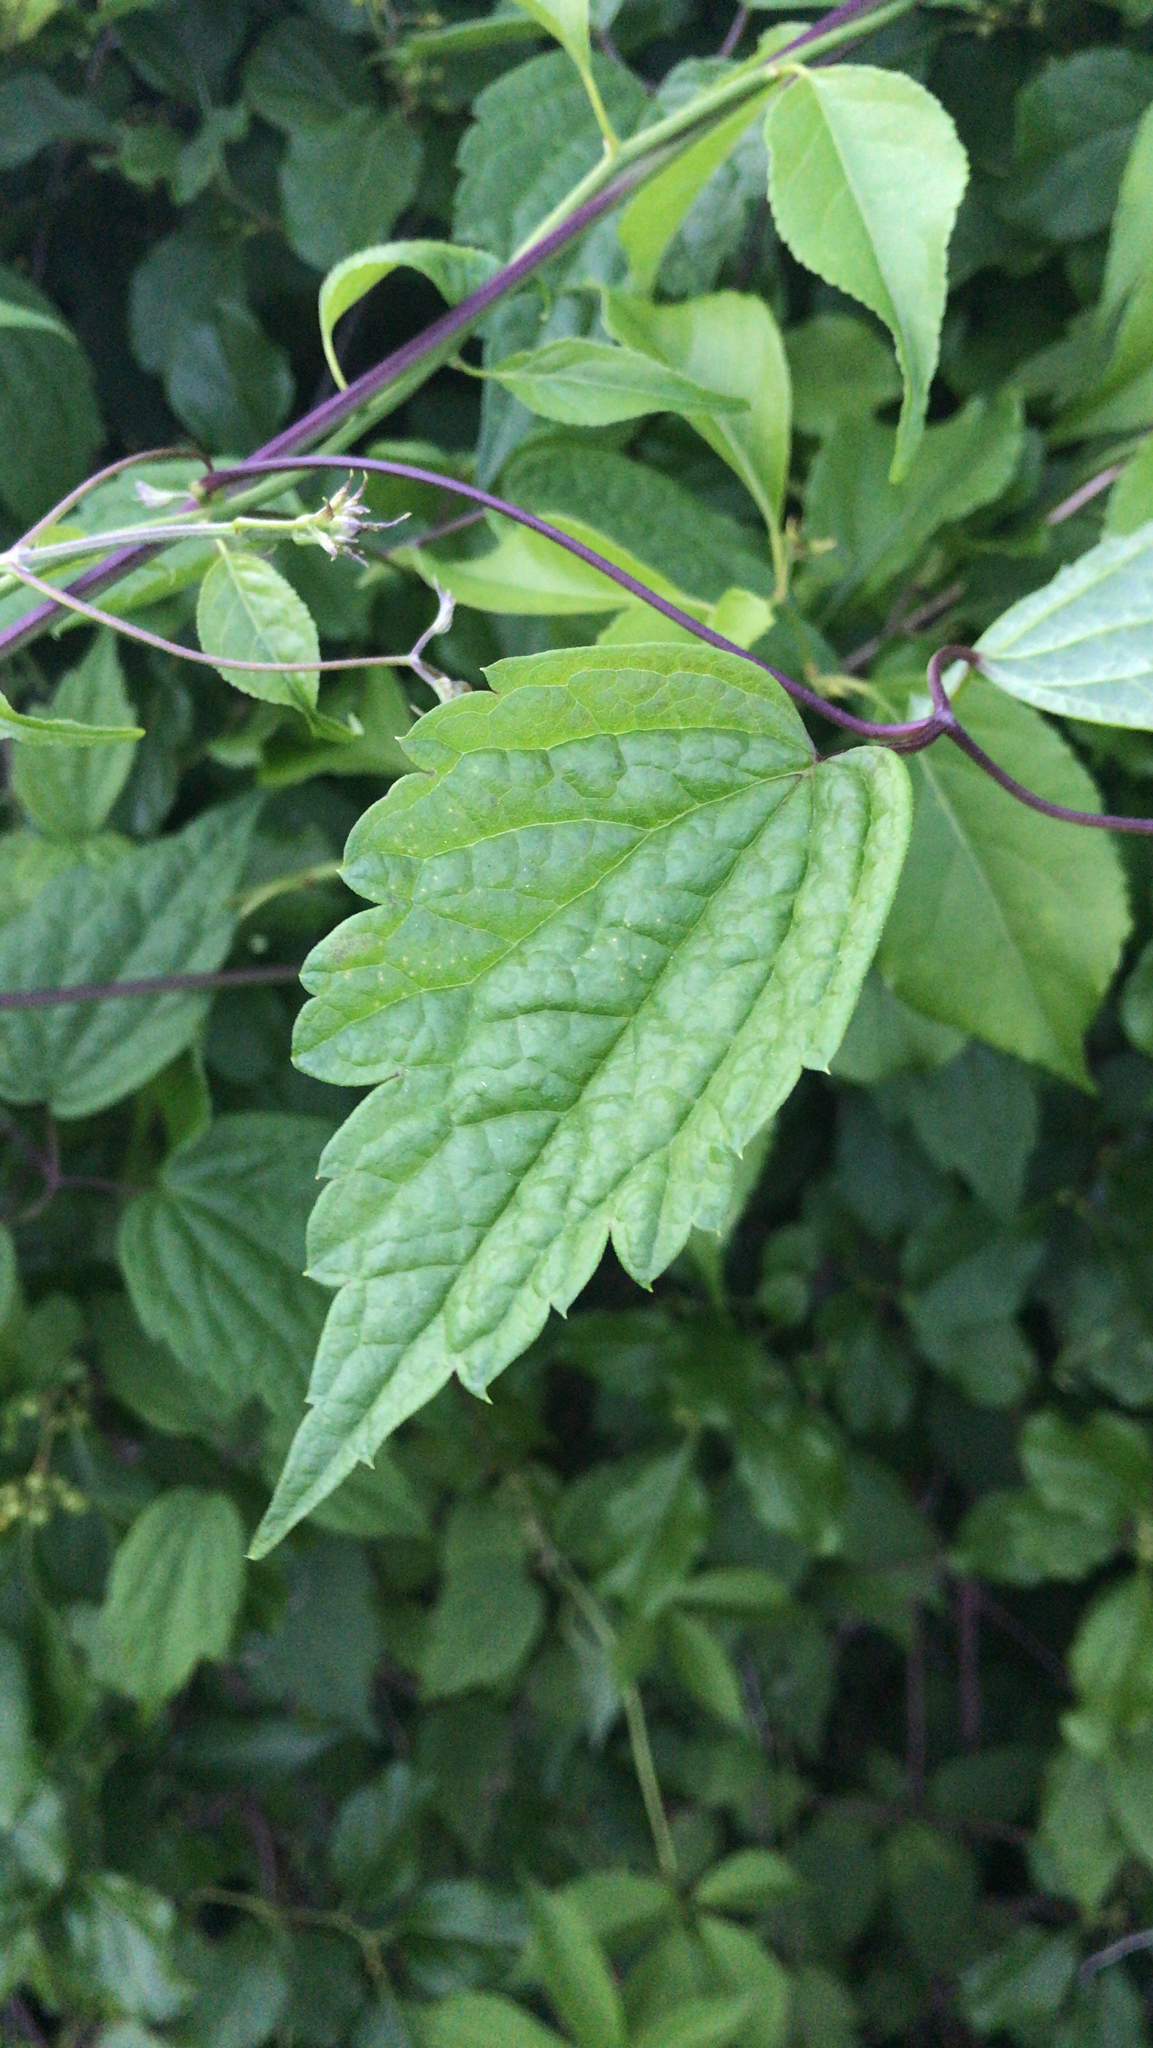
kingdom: Plantae
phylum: Tracheophyta
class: Magnoliopsida
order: Ranunculales
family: Ranunculaceae
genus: Clematis
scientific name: Clematis virginiana
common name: Virgin's-bower
